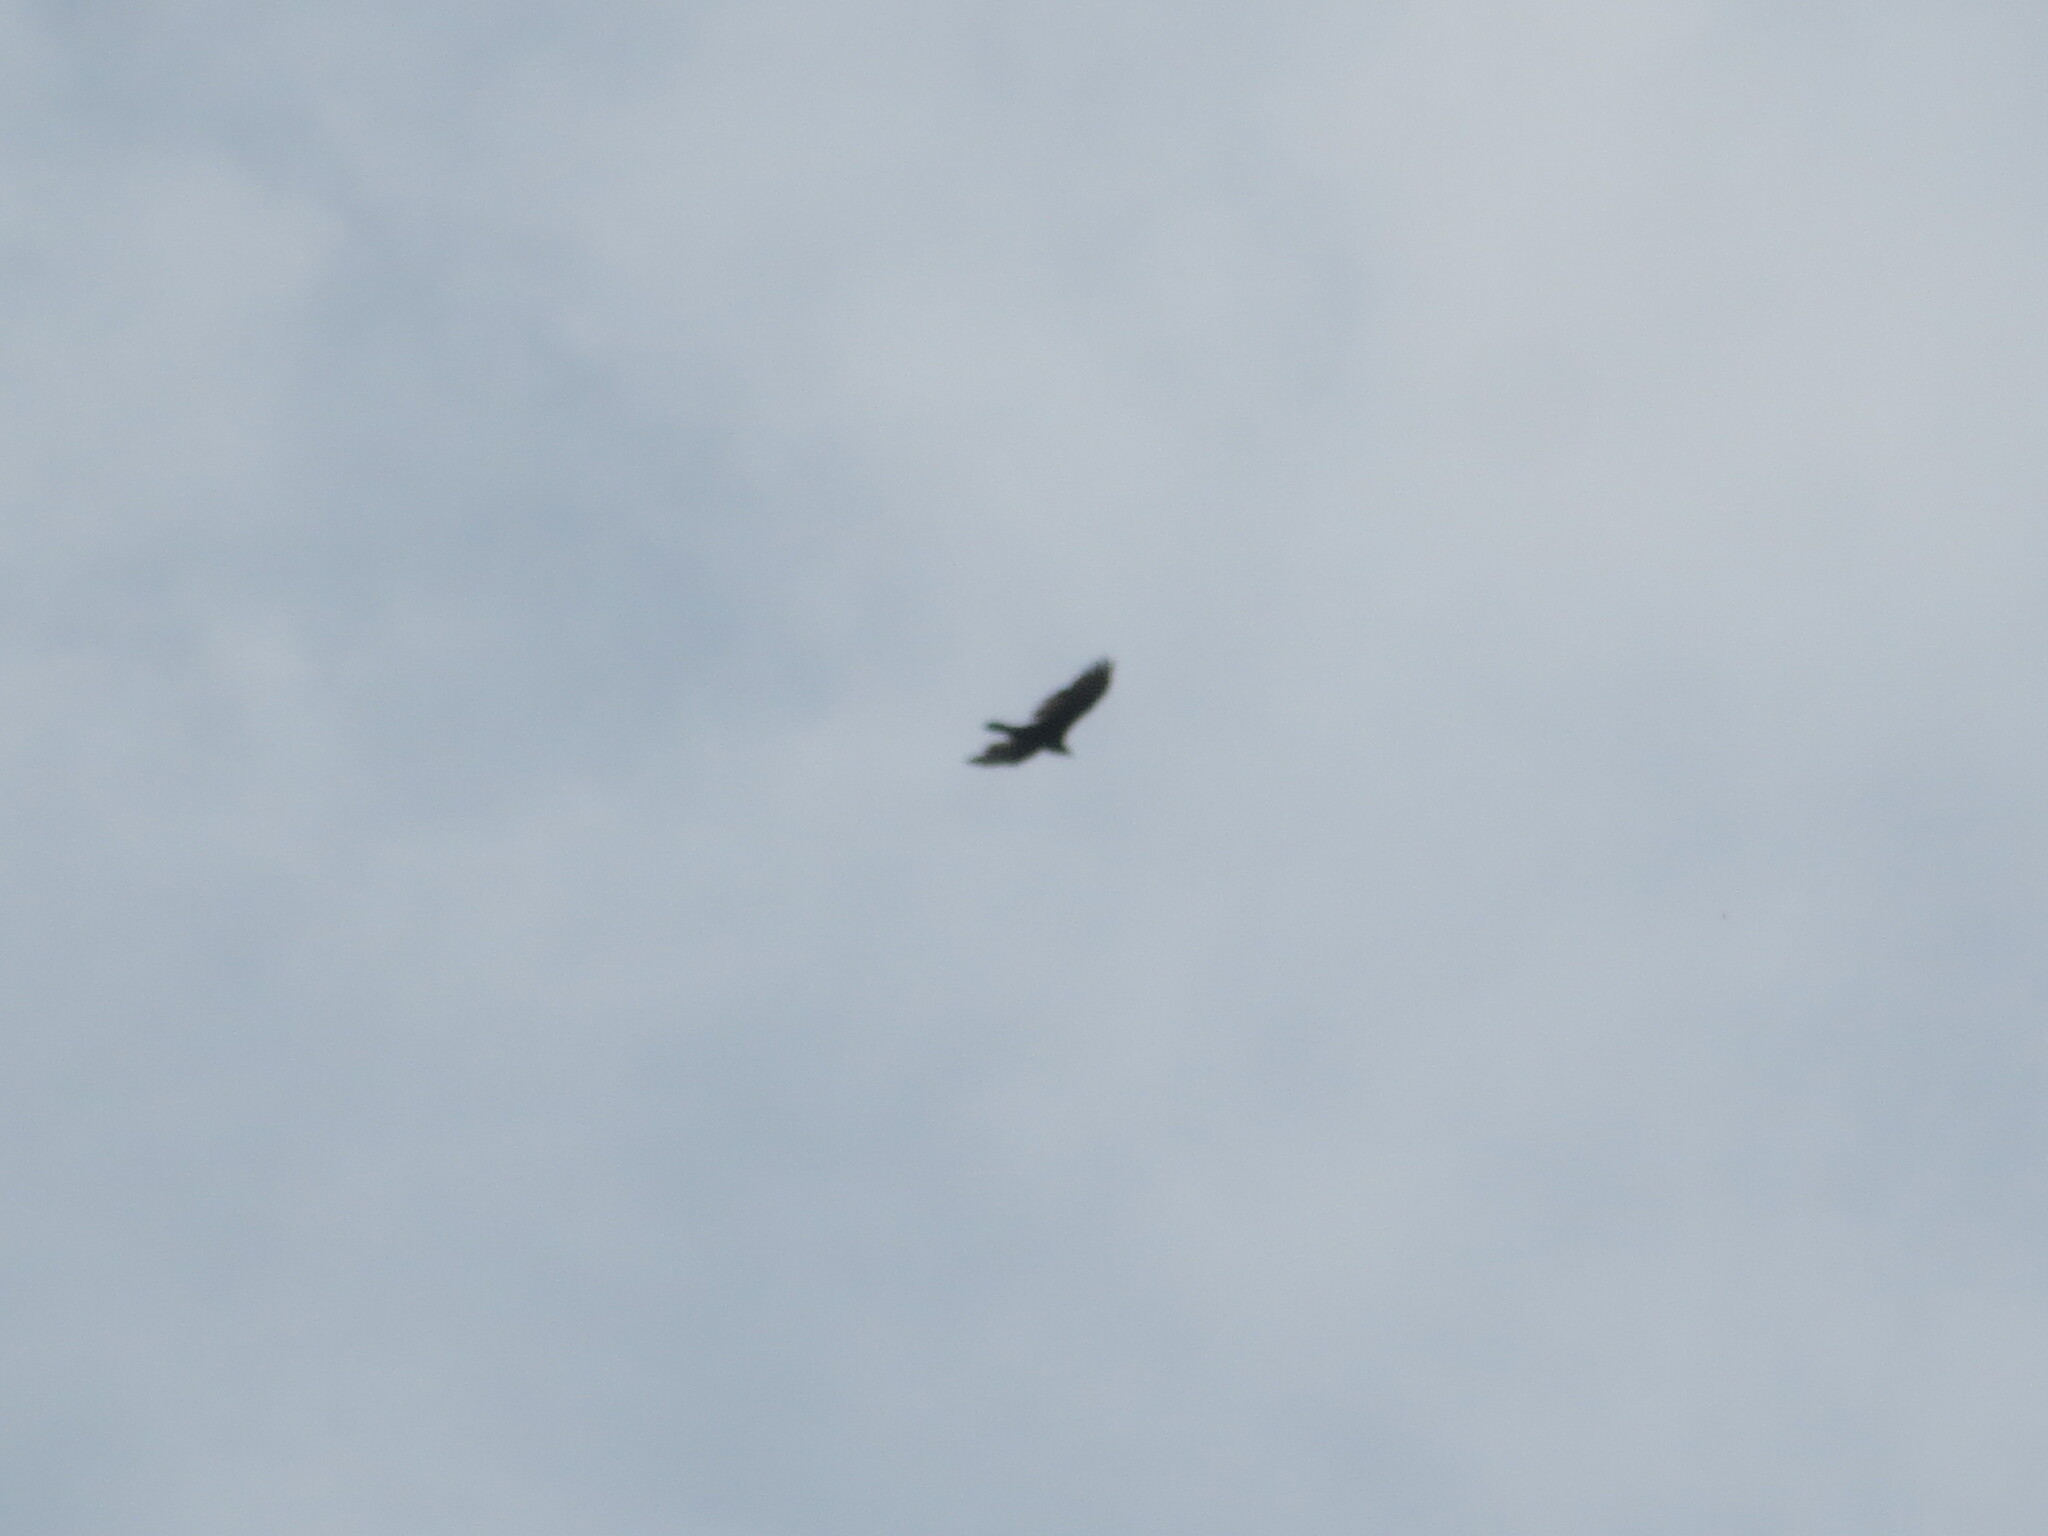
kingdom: Animalia
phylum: Chordata
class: Aves
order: Accipitriformes
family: Cathartidae
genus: Cathartes
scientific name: Cathartes aura
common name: Turkey vulture
